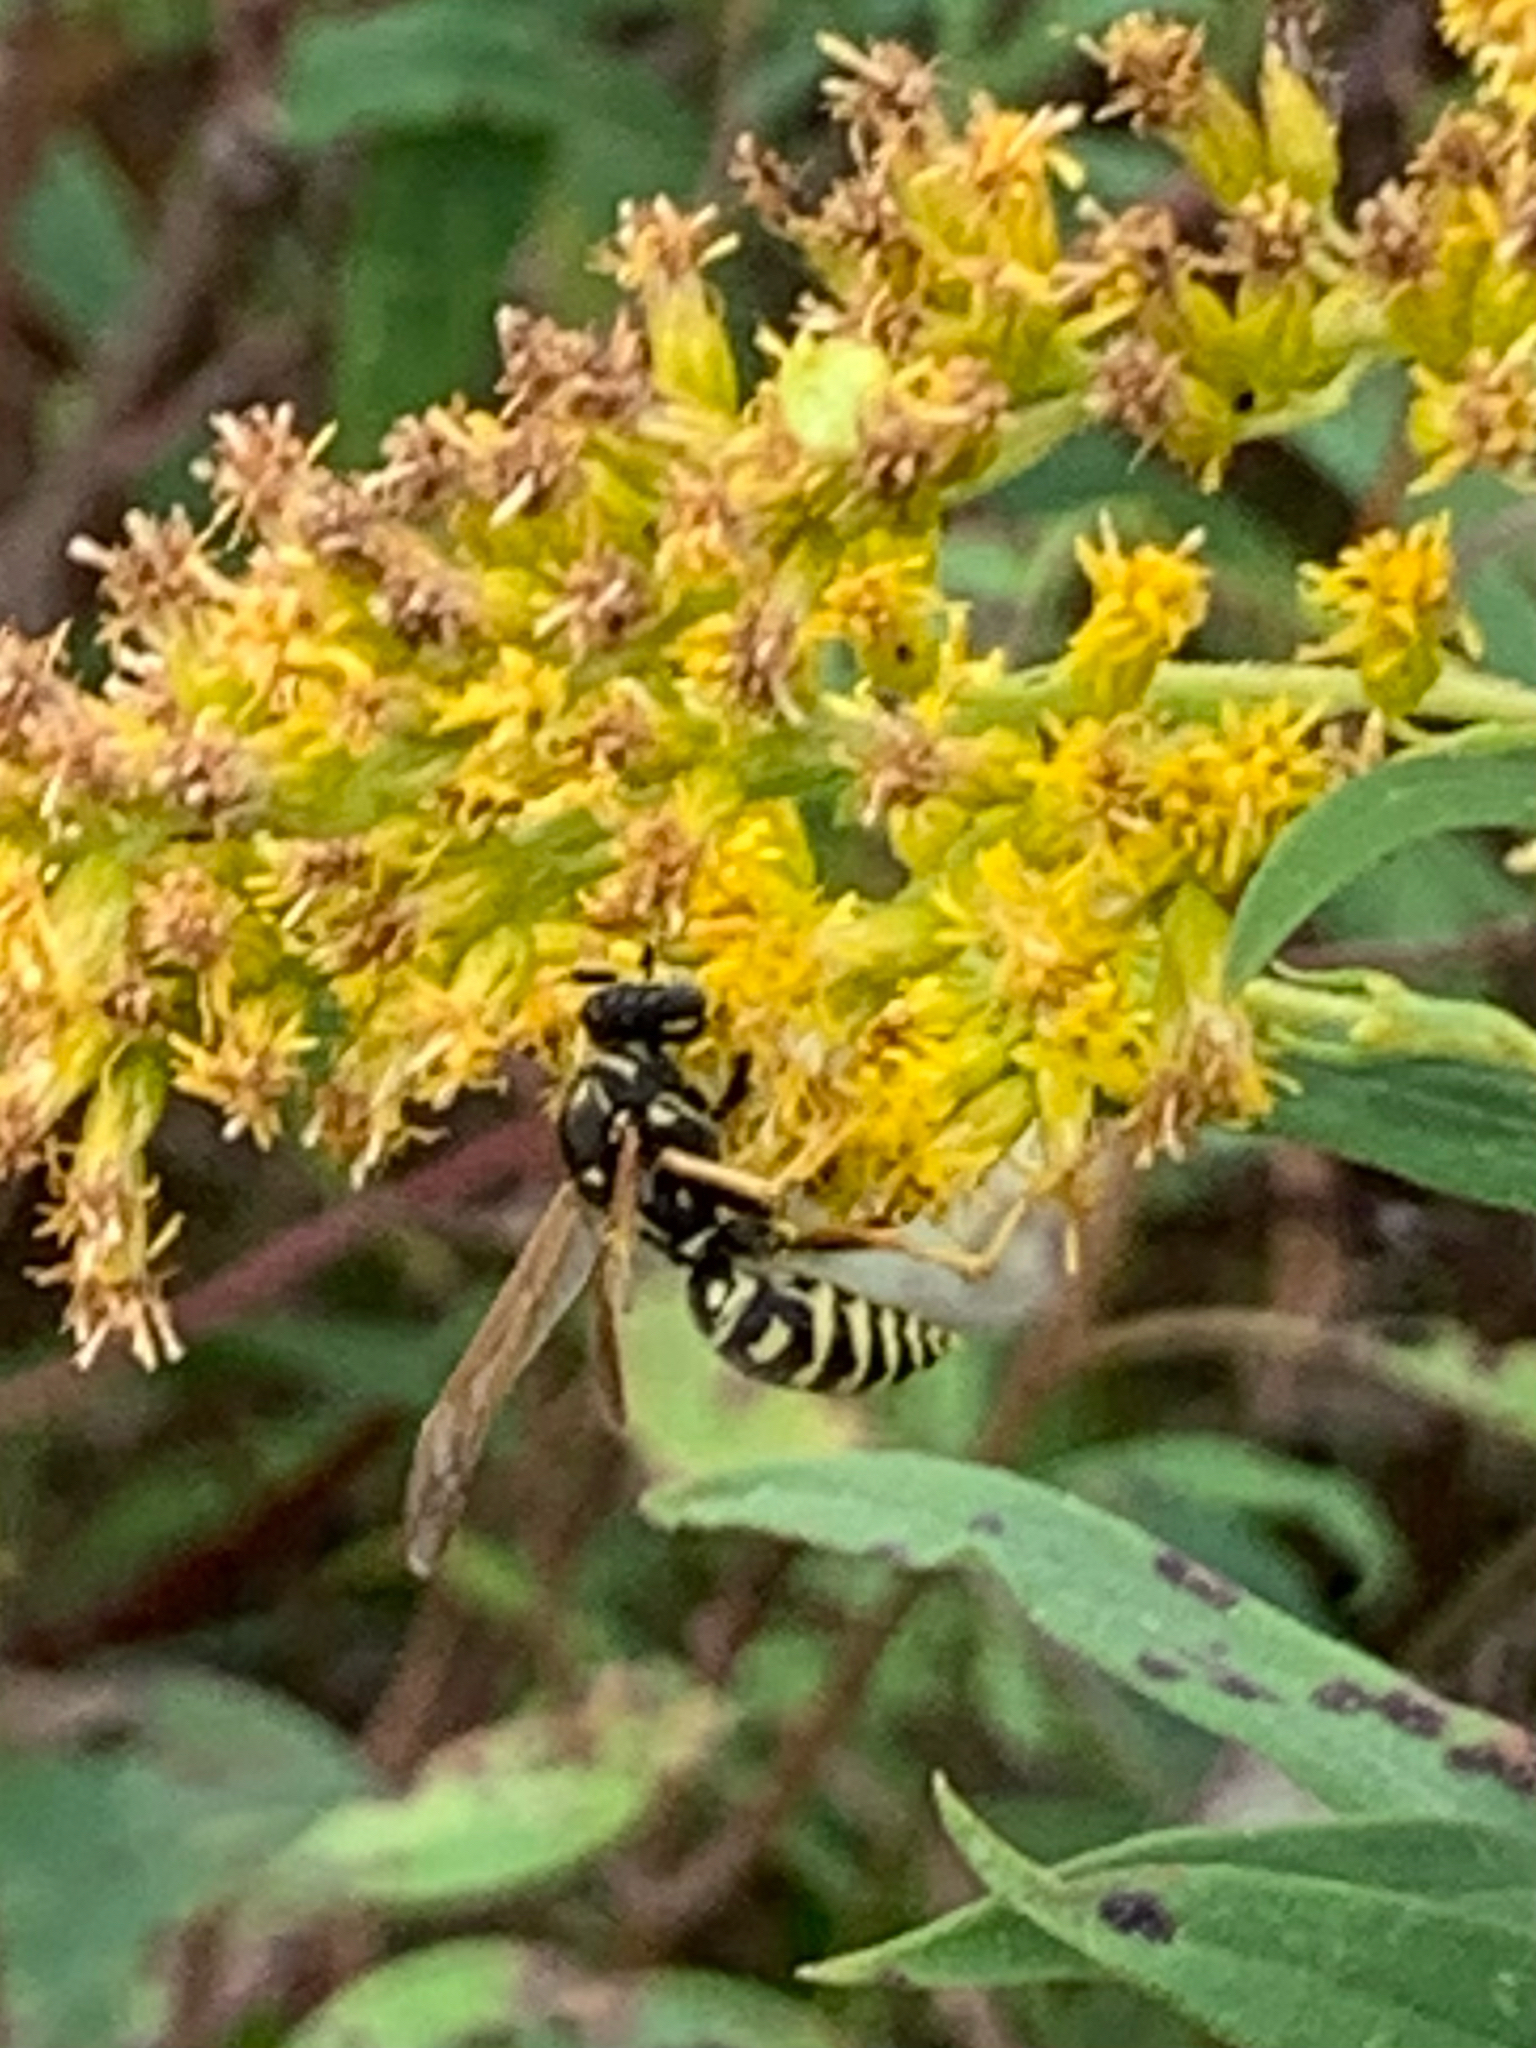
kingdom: Animalia
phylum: Arthropoda
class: Insecta
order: Hymenoptera
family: Eumenidae
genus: Polistes
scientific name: Polistes dominula
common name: Paper wasp
